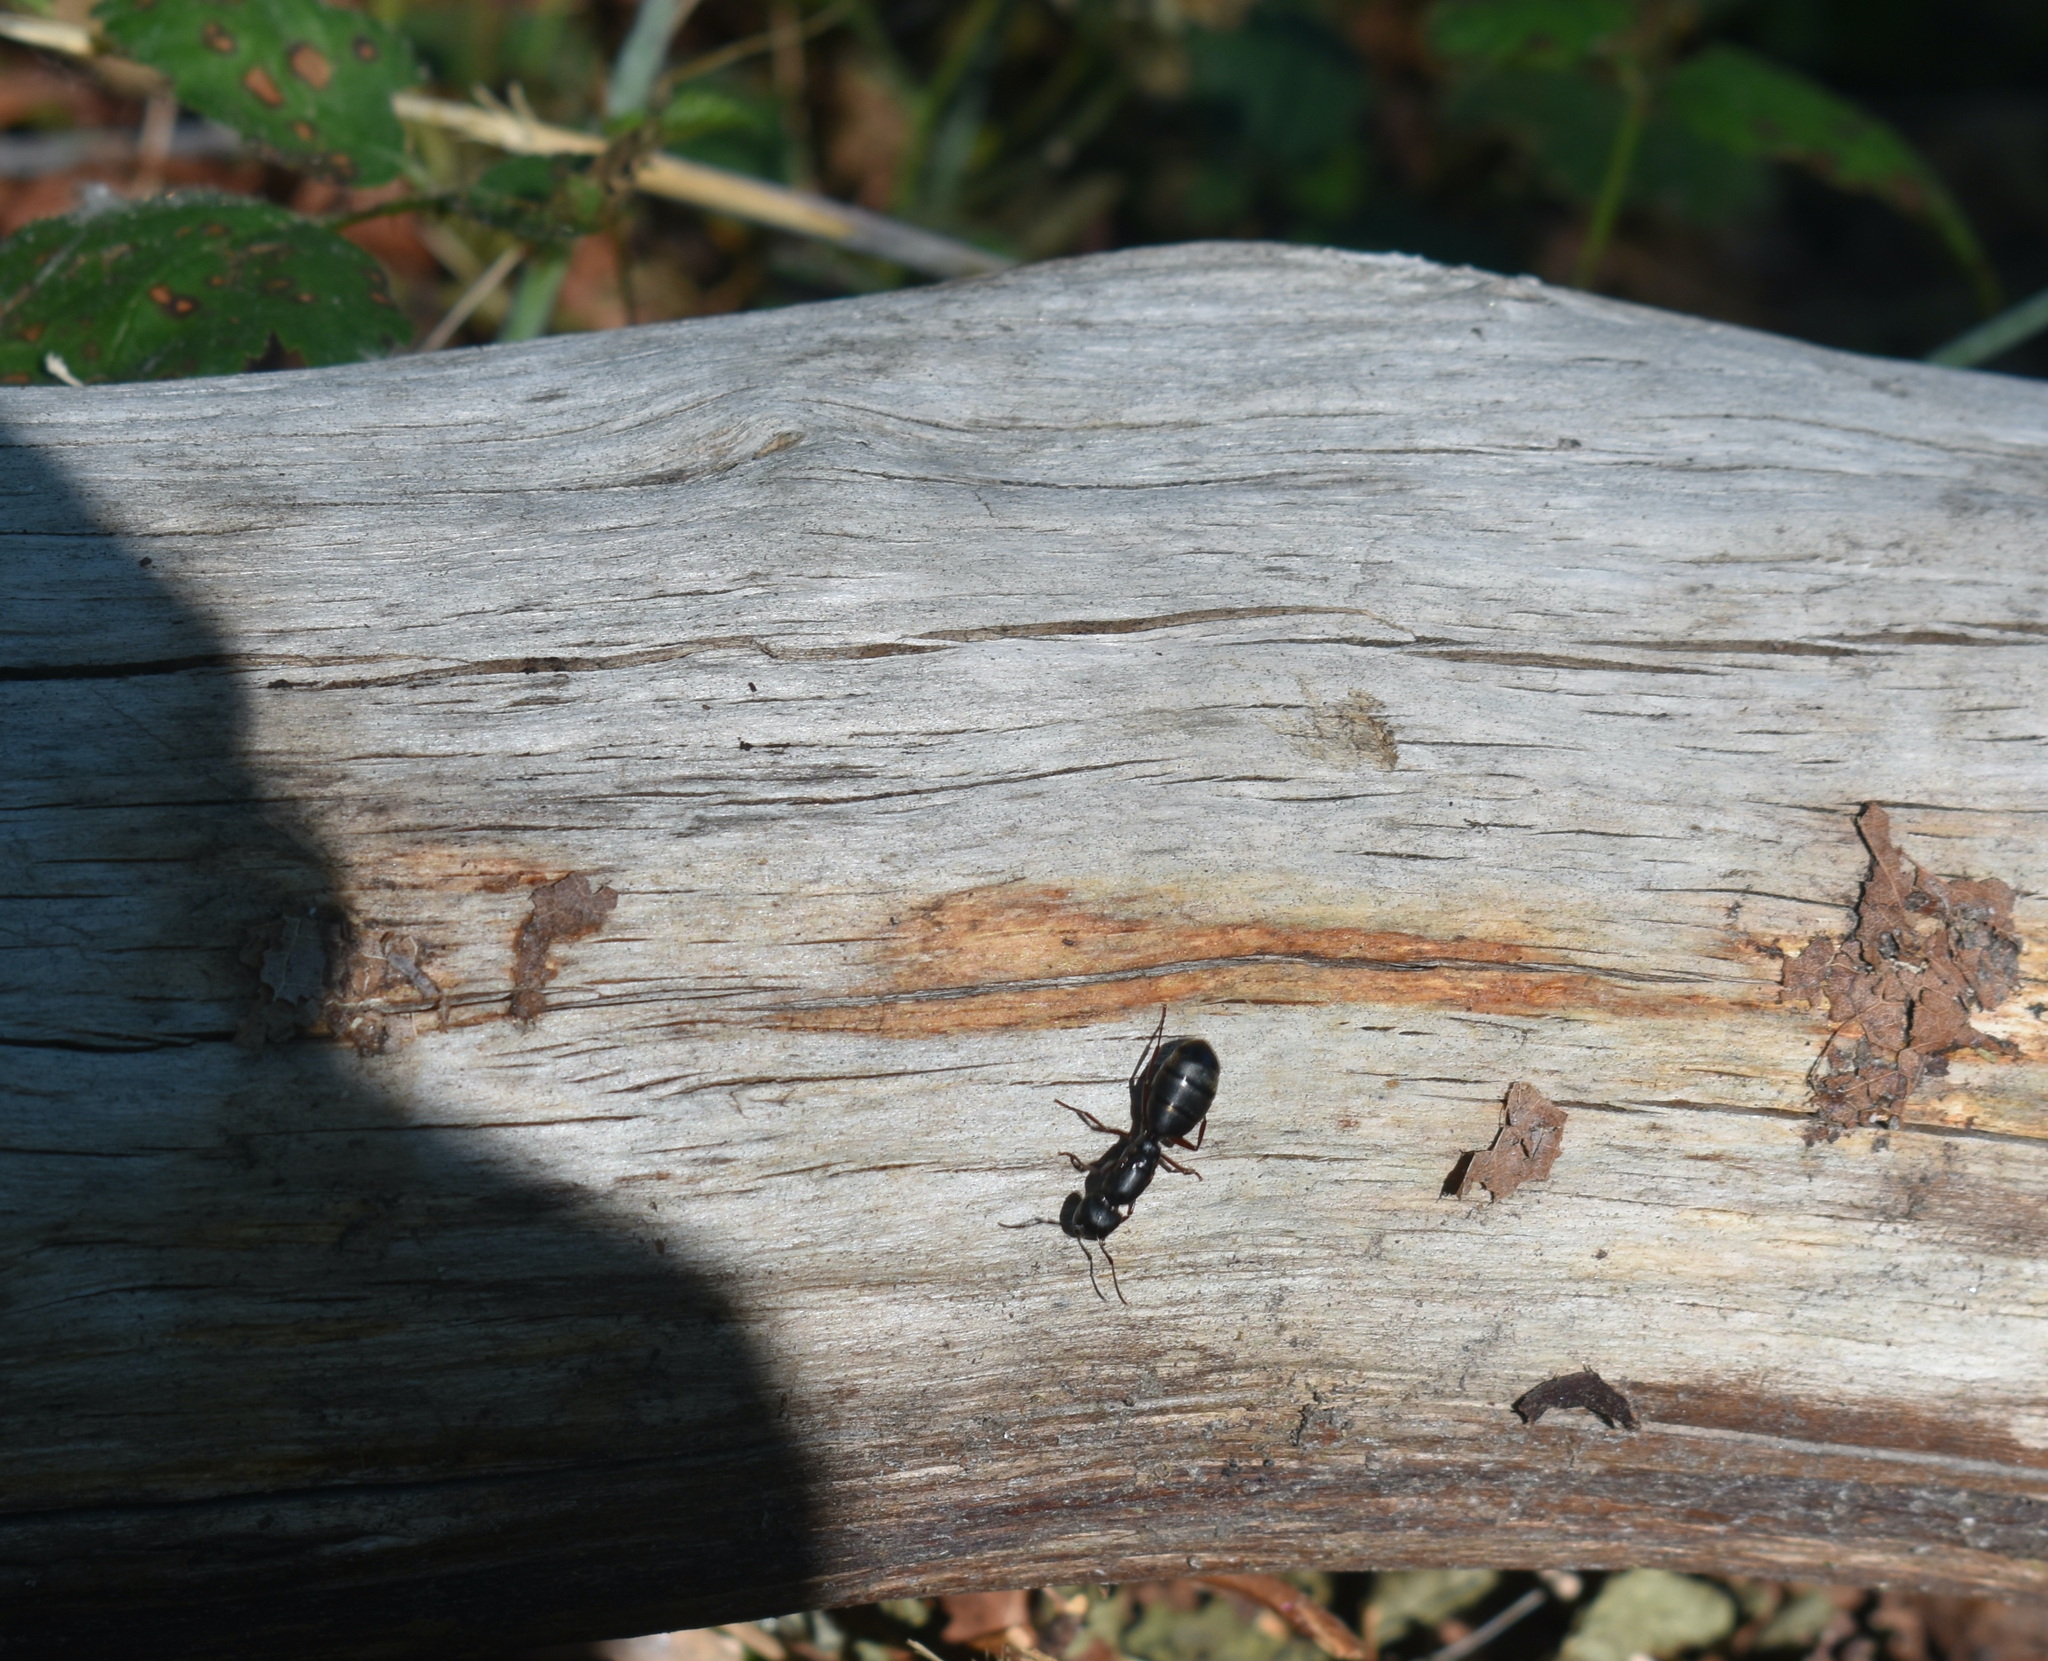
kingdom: Animalia
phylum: Arthropoda
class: Insecta
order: Hymenoptera
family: Formicidae
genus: Camponotus
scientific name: Camponotus modoc
